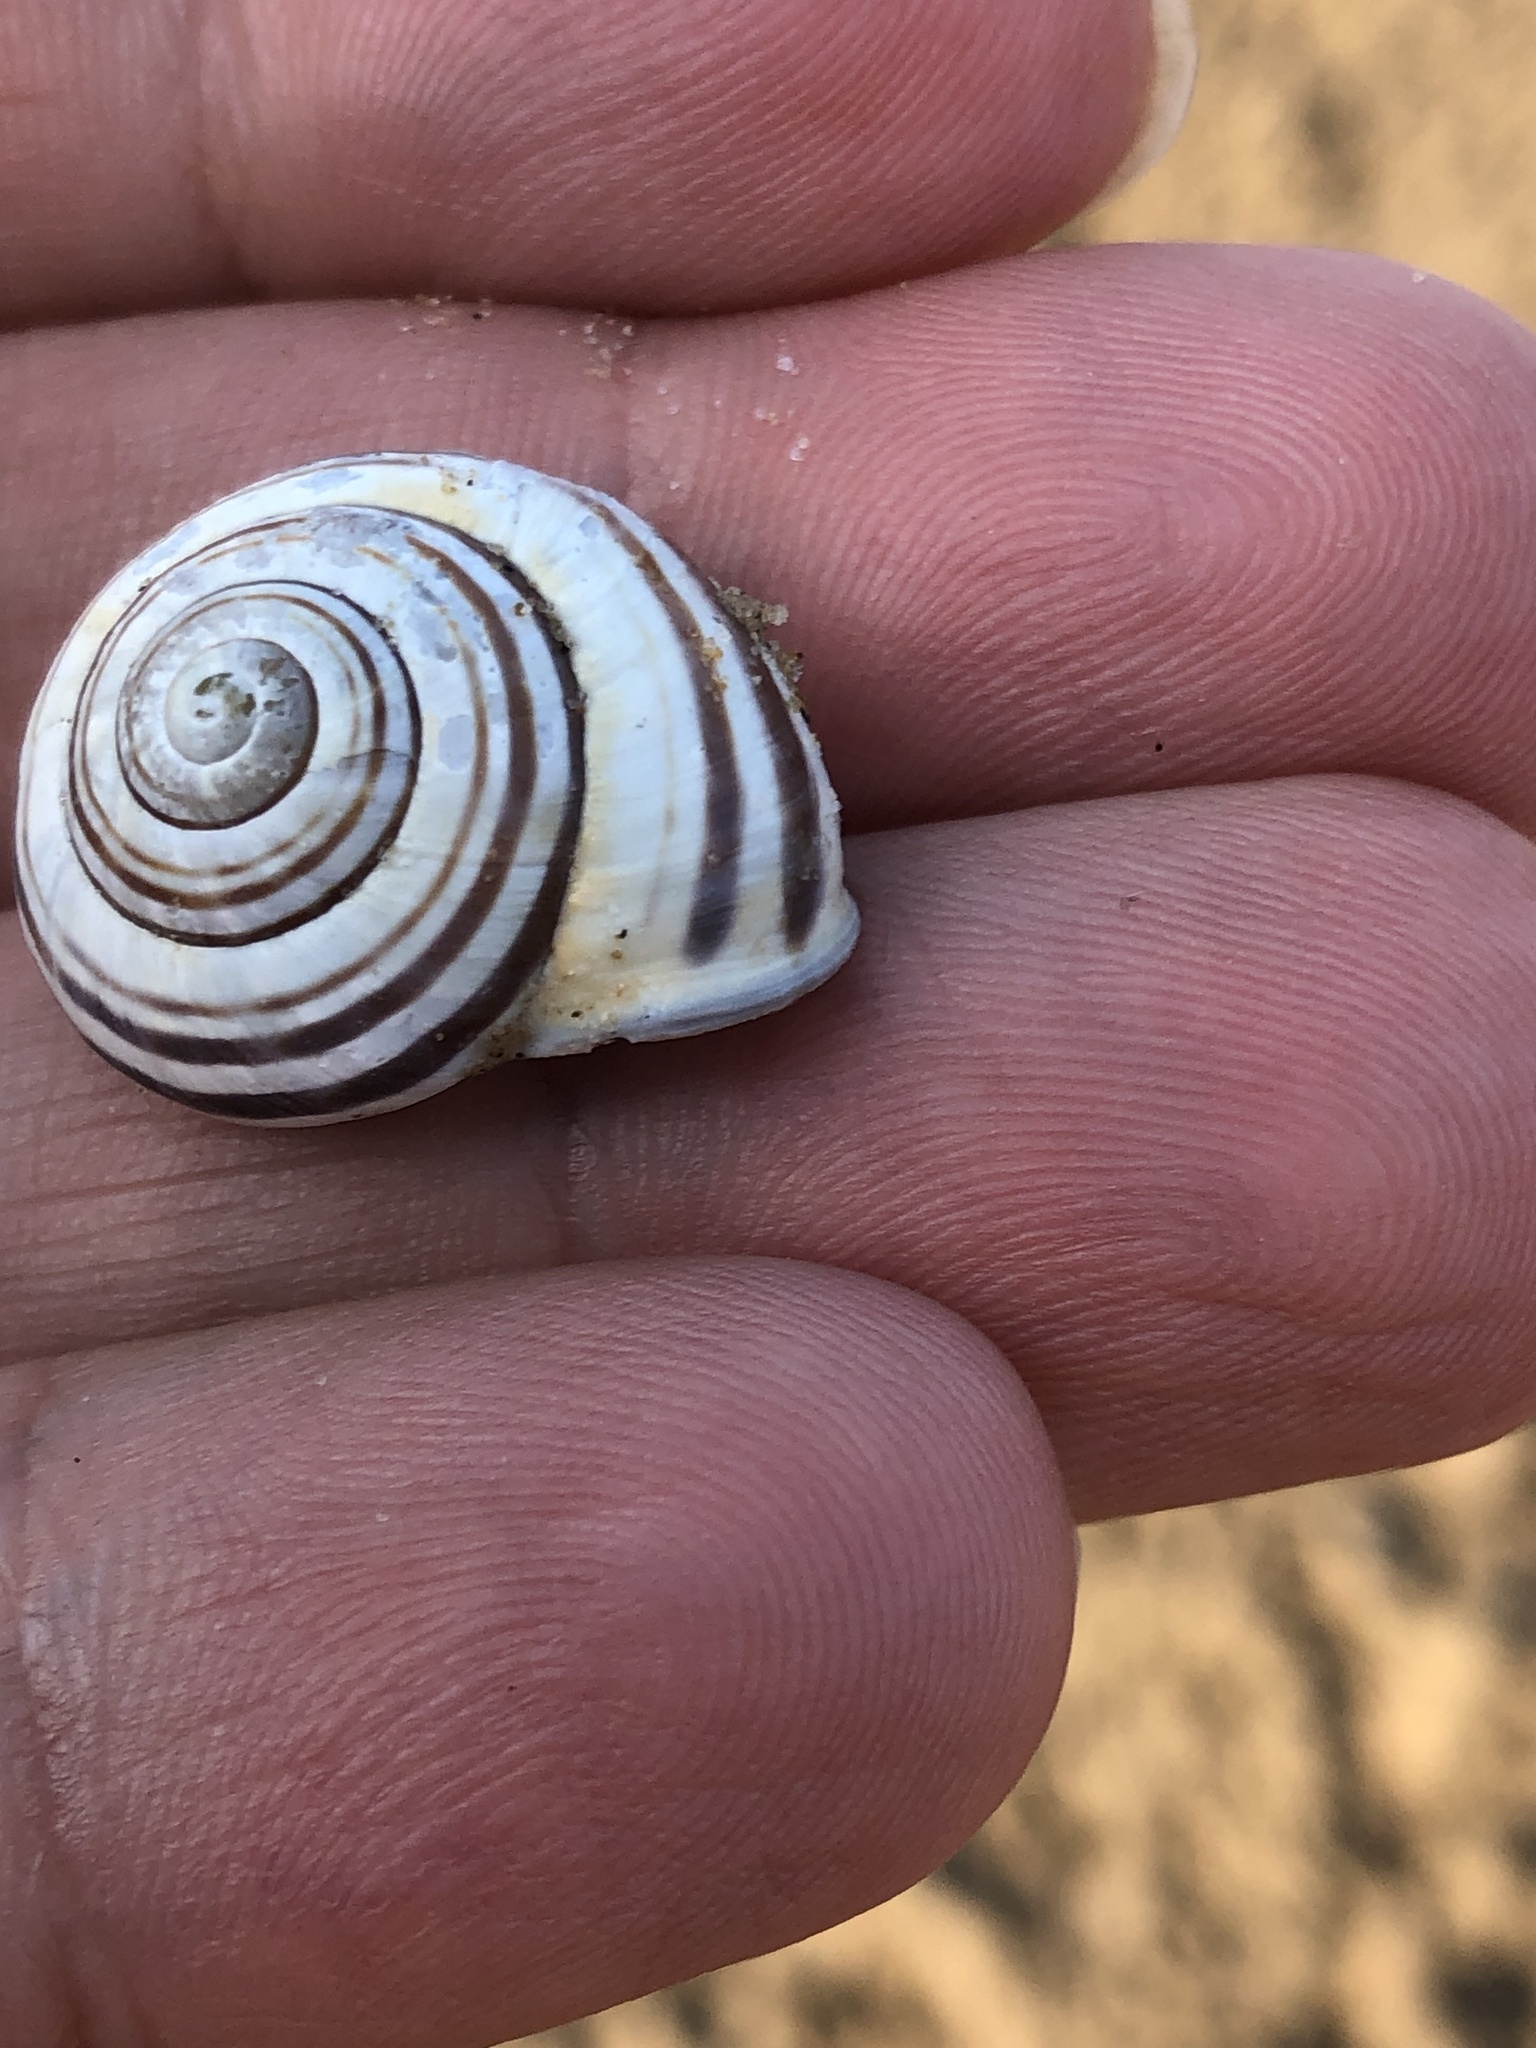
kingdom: Animalia
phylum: Mollusca
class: Gastropoda
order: Stylommatophora
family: Helicidae
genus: Cepaea
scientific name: Cepaea nemoralis
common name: Grovesnail
